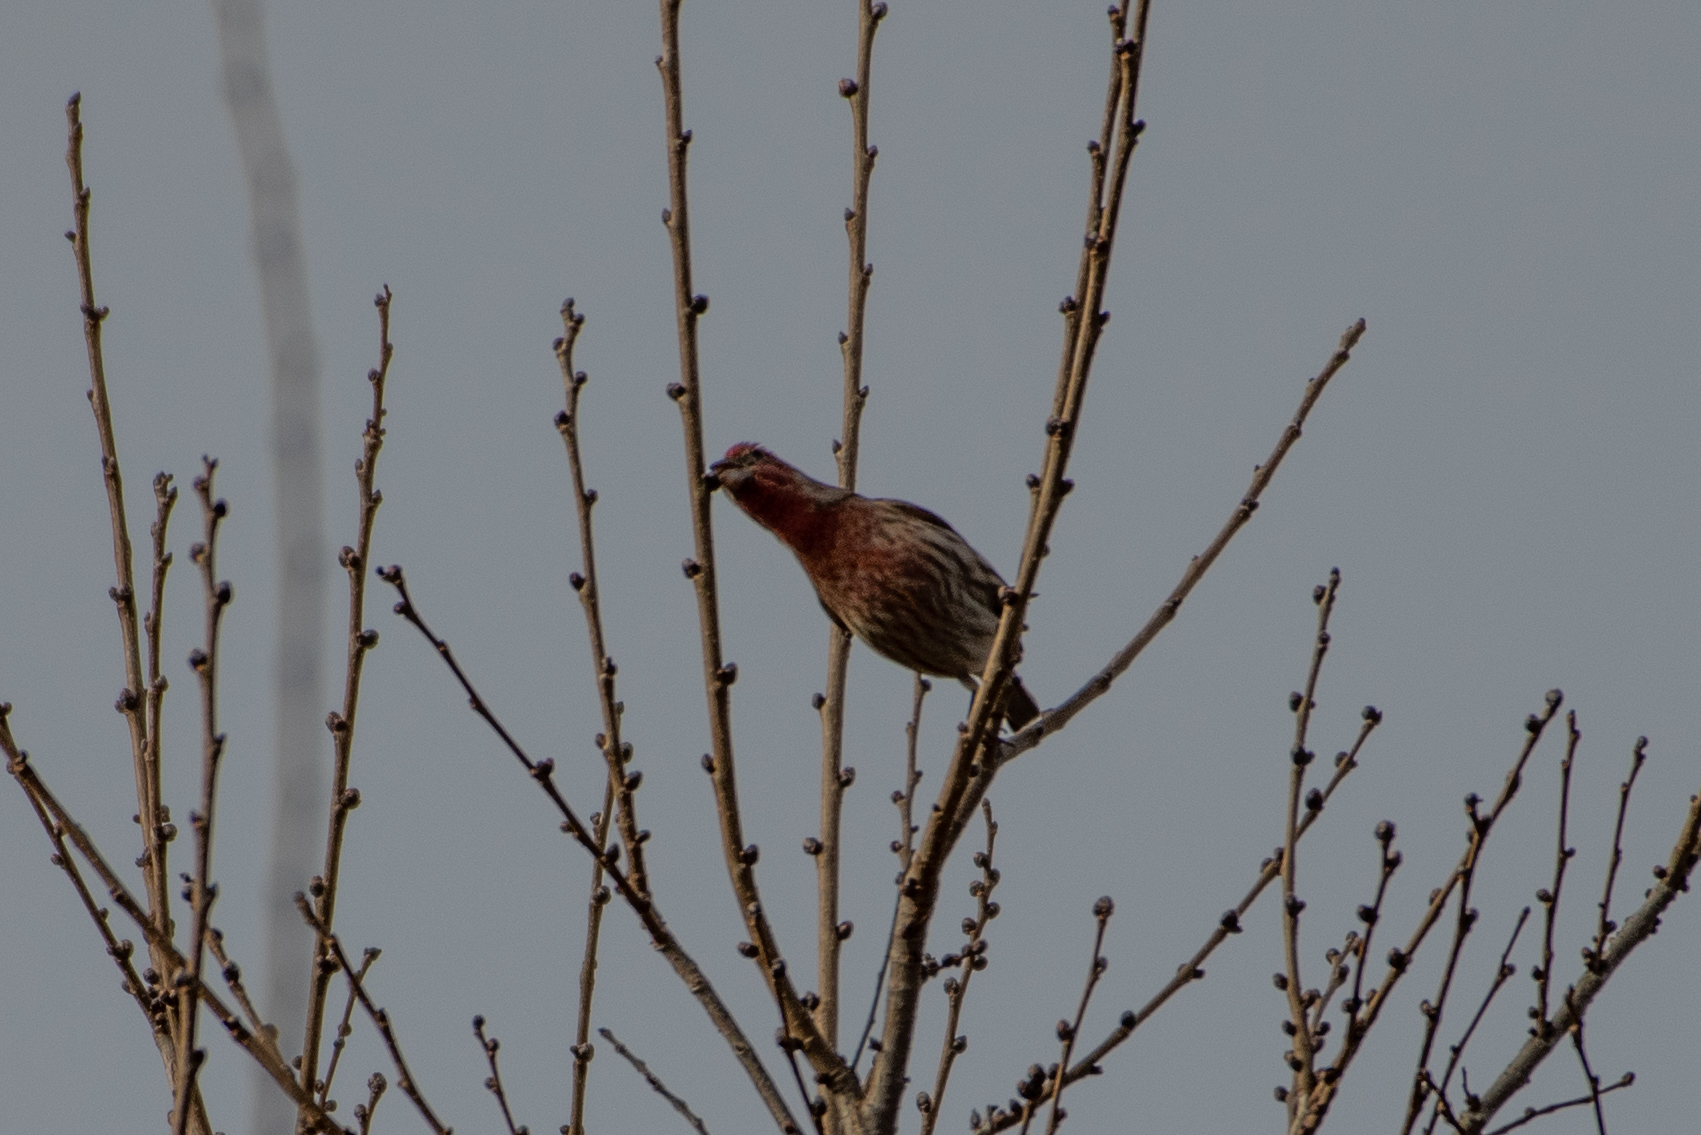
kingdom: Animalia
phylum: Chordata
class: Aves
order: Passeriformes
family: Fringillidae
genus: Haemorhous
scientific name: Haemorhous mexicanus
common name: House finch
